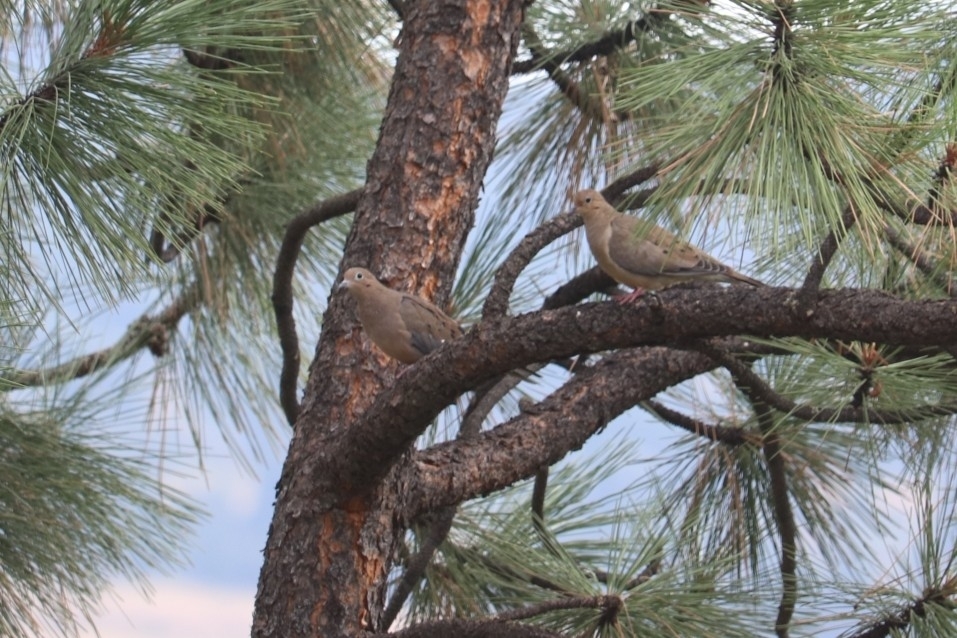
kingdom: Animalia
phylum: Chordata
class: Aves
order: Columbiformes
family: Columbidae
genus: Zenaida
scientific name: Zenaida macroura
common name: Mourning dove
